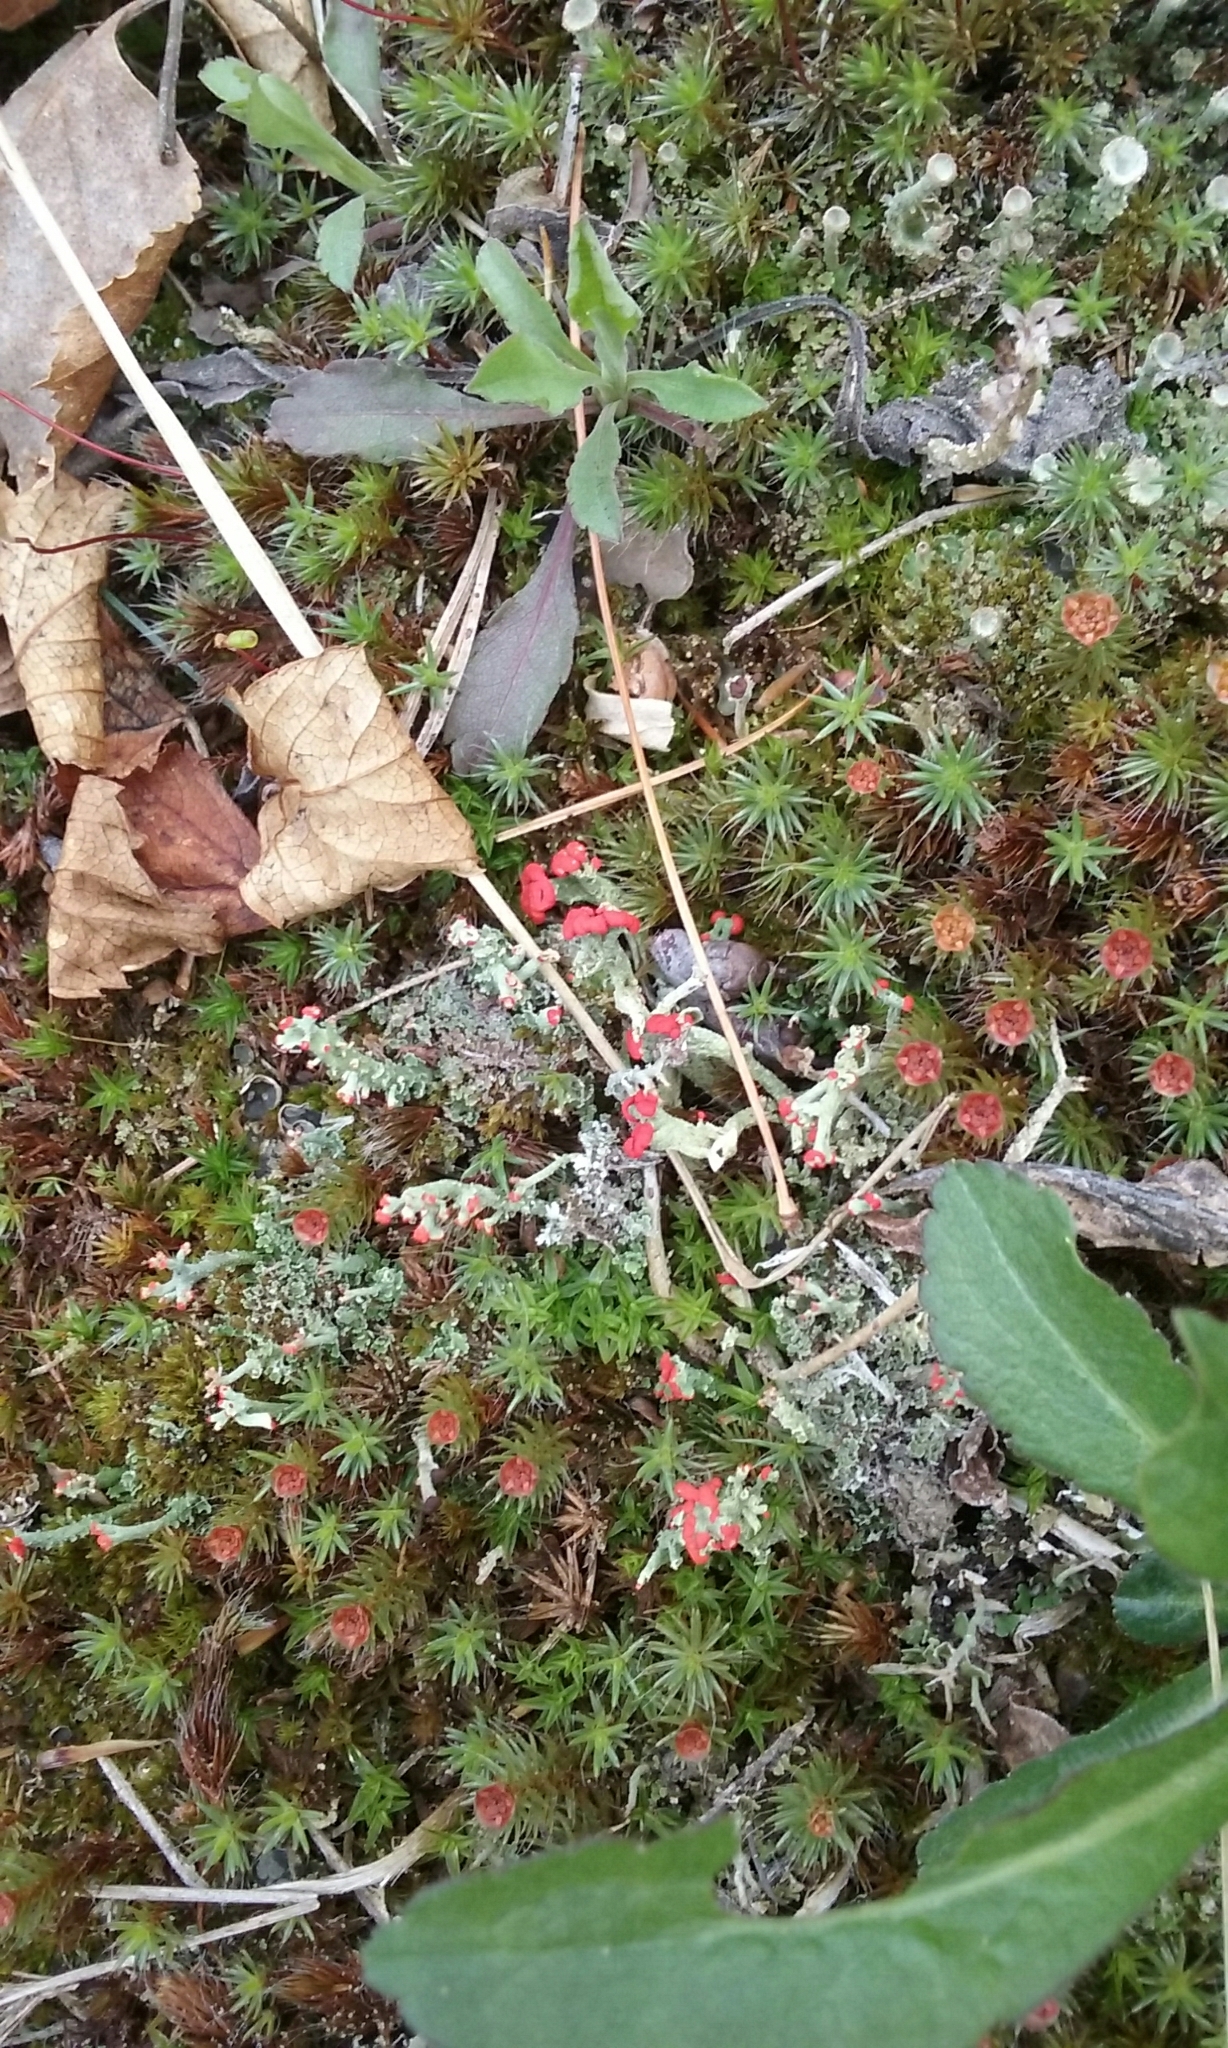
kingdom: Fungi
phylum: Ascomycota
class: Lecanoromycetes
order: Lecanorales
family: Cladoniaceae
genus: Cladonia
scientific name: Cladonia cristatella
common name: British soldier lichen
